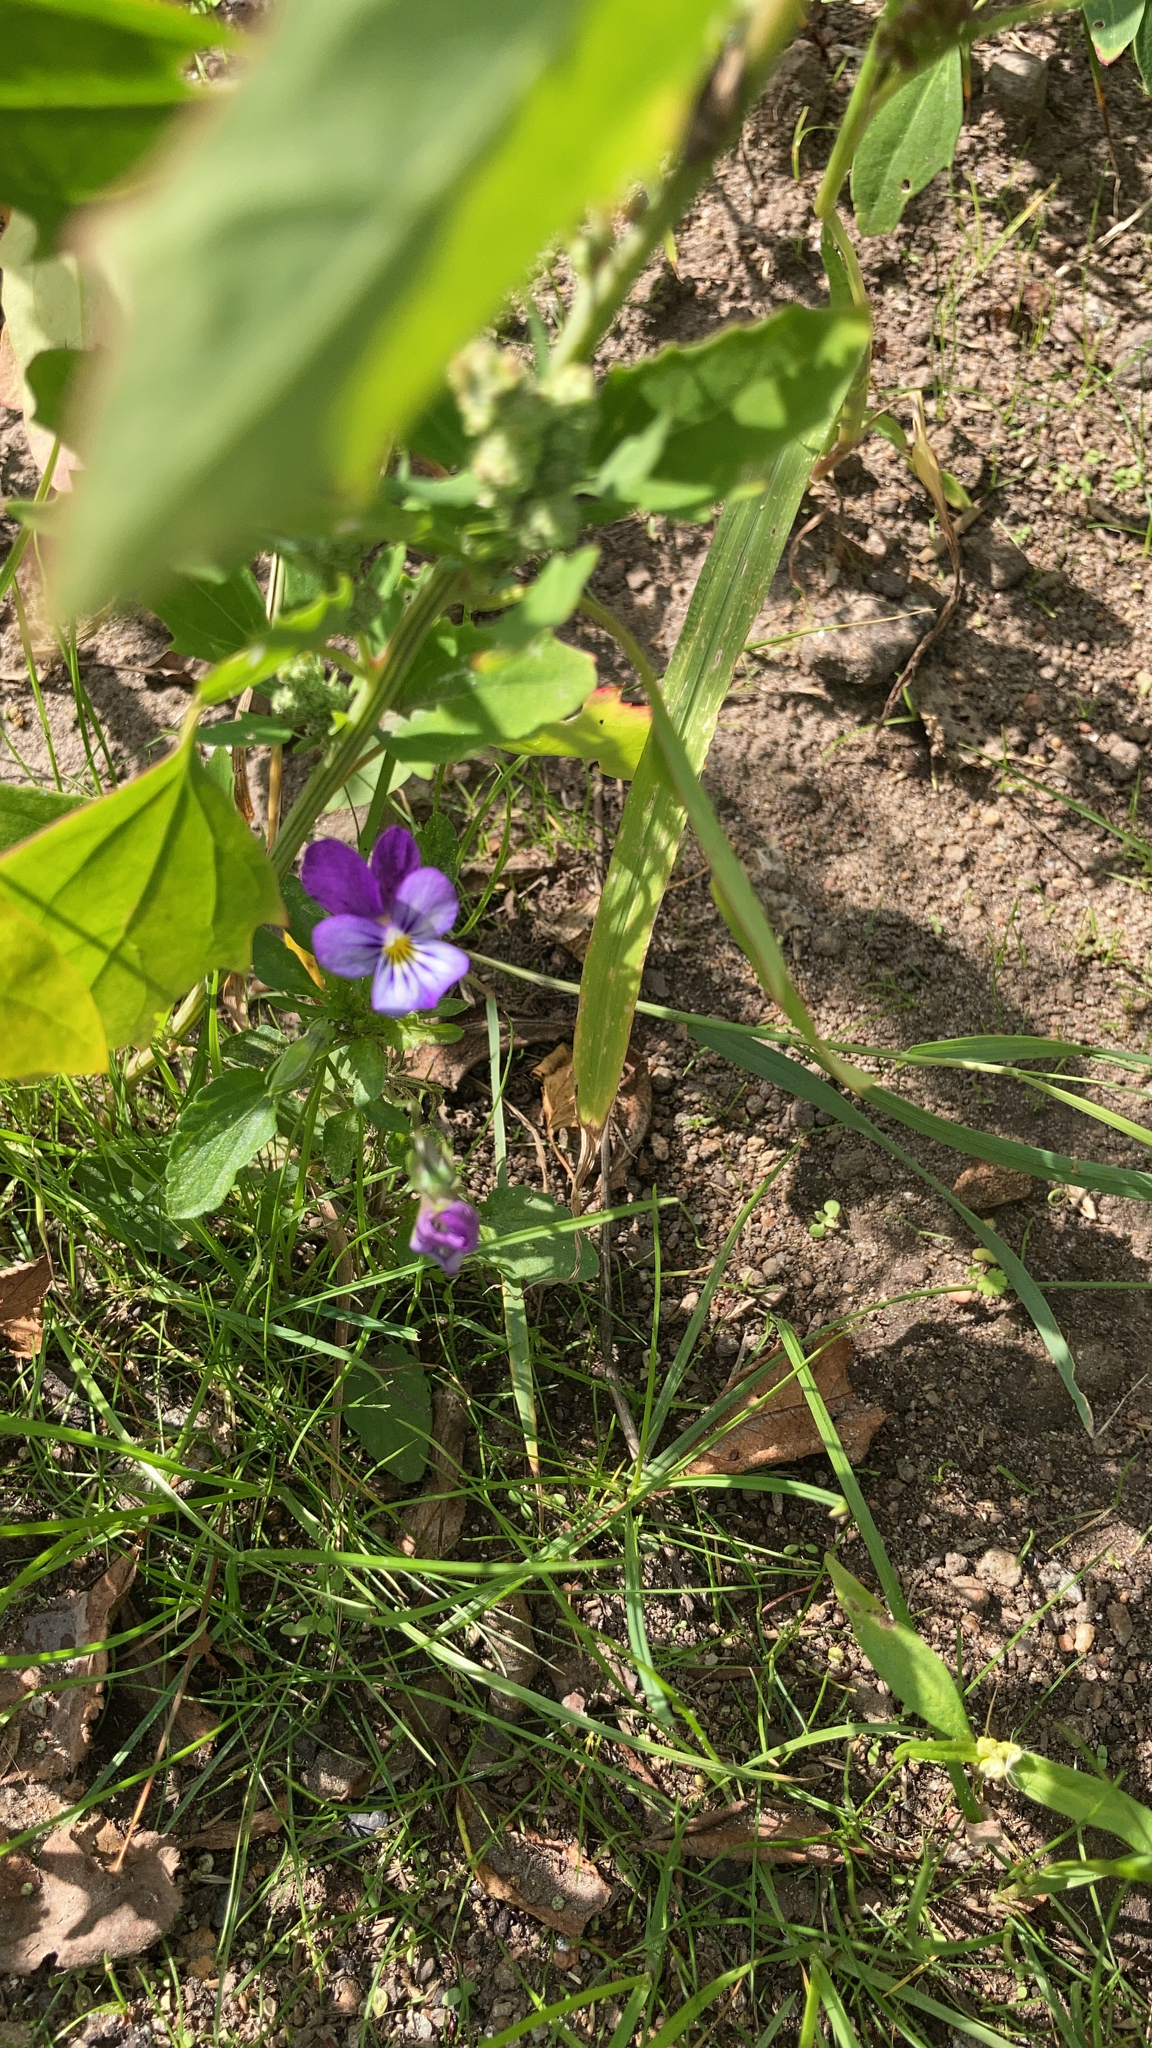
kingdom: Plantae
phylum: Tracheophyta
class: Magnoliopsida
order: Malpighiales
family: Violaceae
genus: Viola
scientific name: Viola tricolor
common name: Pansy
